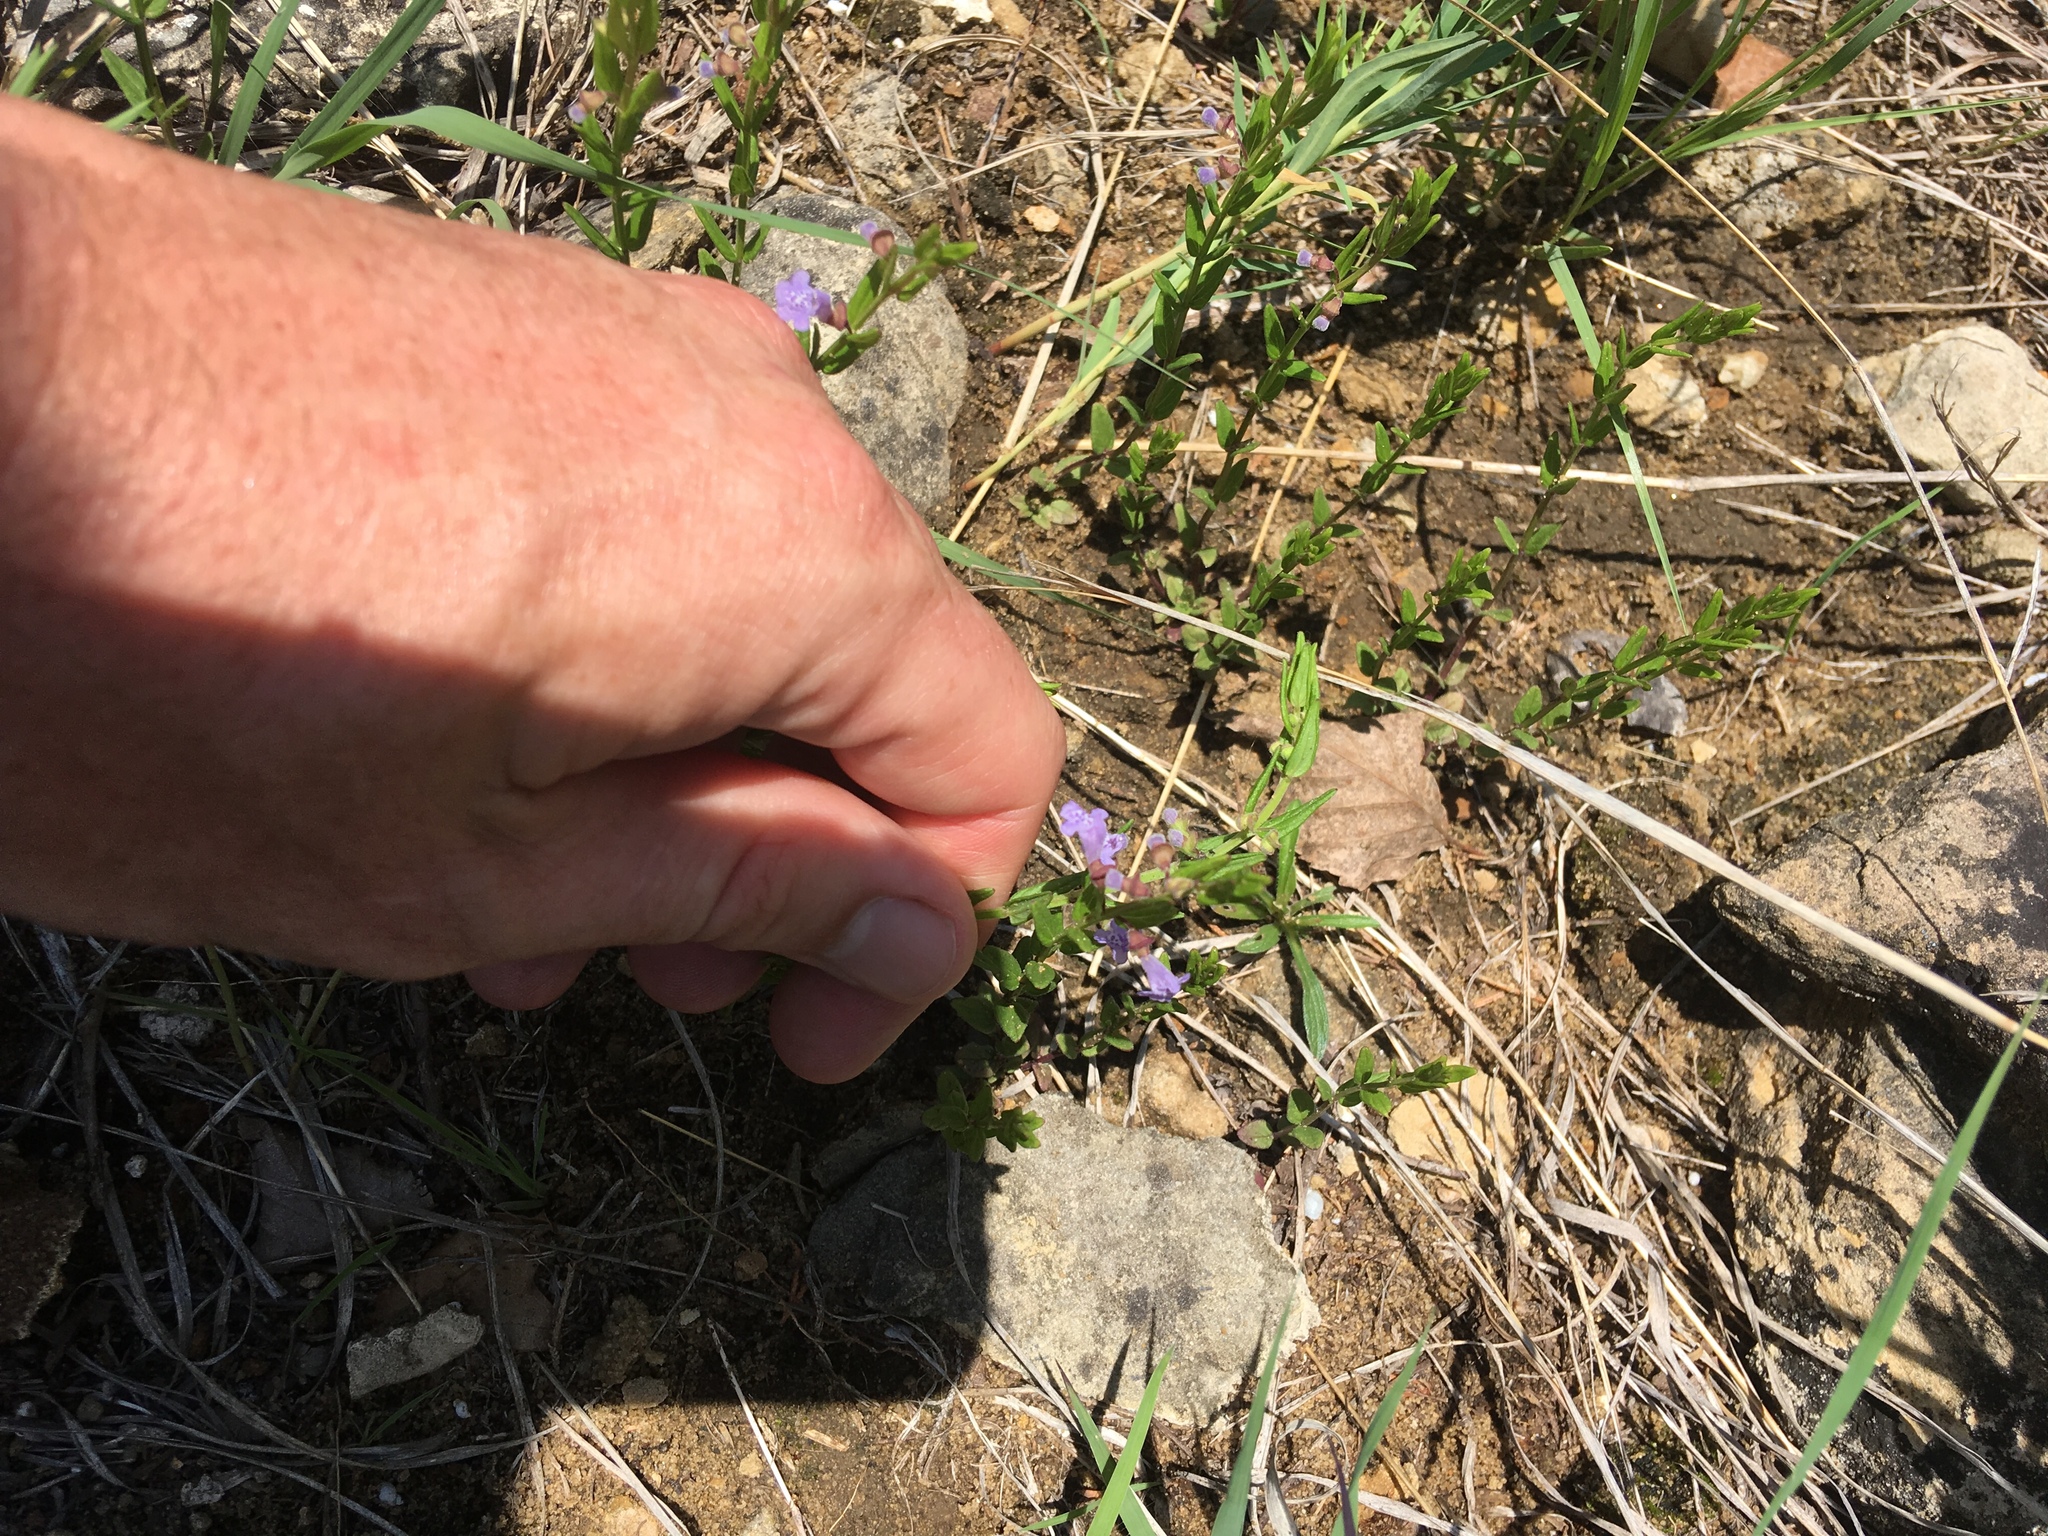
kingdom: Plantae
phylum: Tracheophyta
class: Magnoliopsida
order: Lamiales
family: Lamiaceae
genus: Scutellaria
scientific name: Scutellaria parvula
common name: Little scullcap
